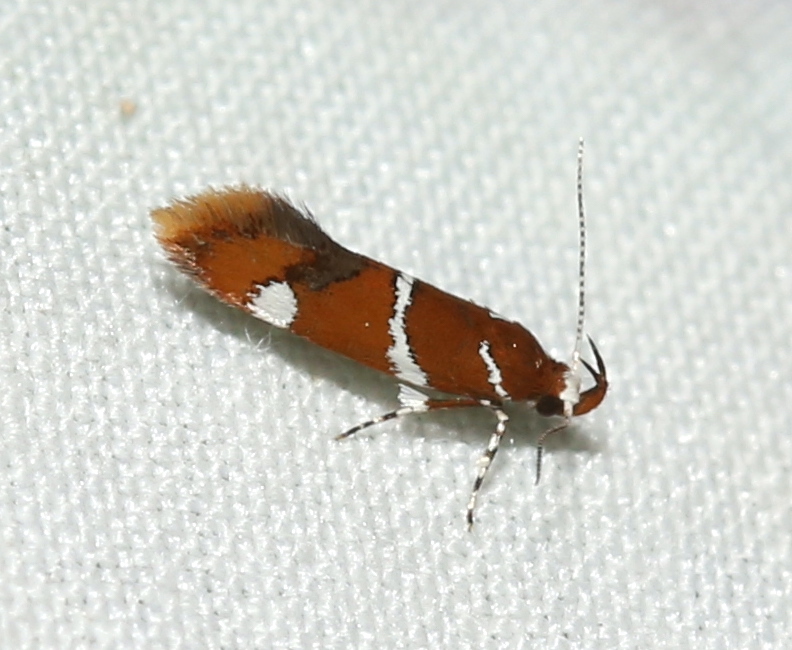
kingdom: Animalia
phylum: Arthropoda
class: Insecta
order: Lepidoptera
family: Oecophoridae
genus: Promalactis
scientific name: Promalactis suzukiella
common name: Moth
